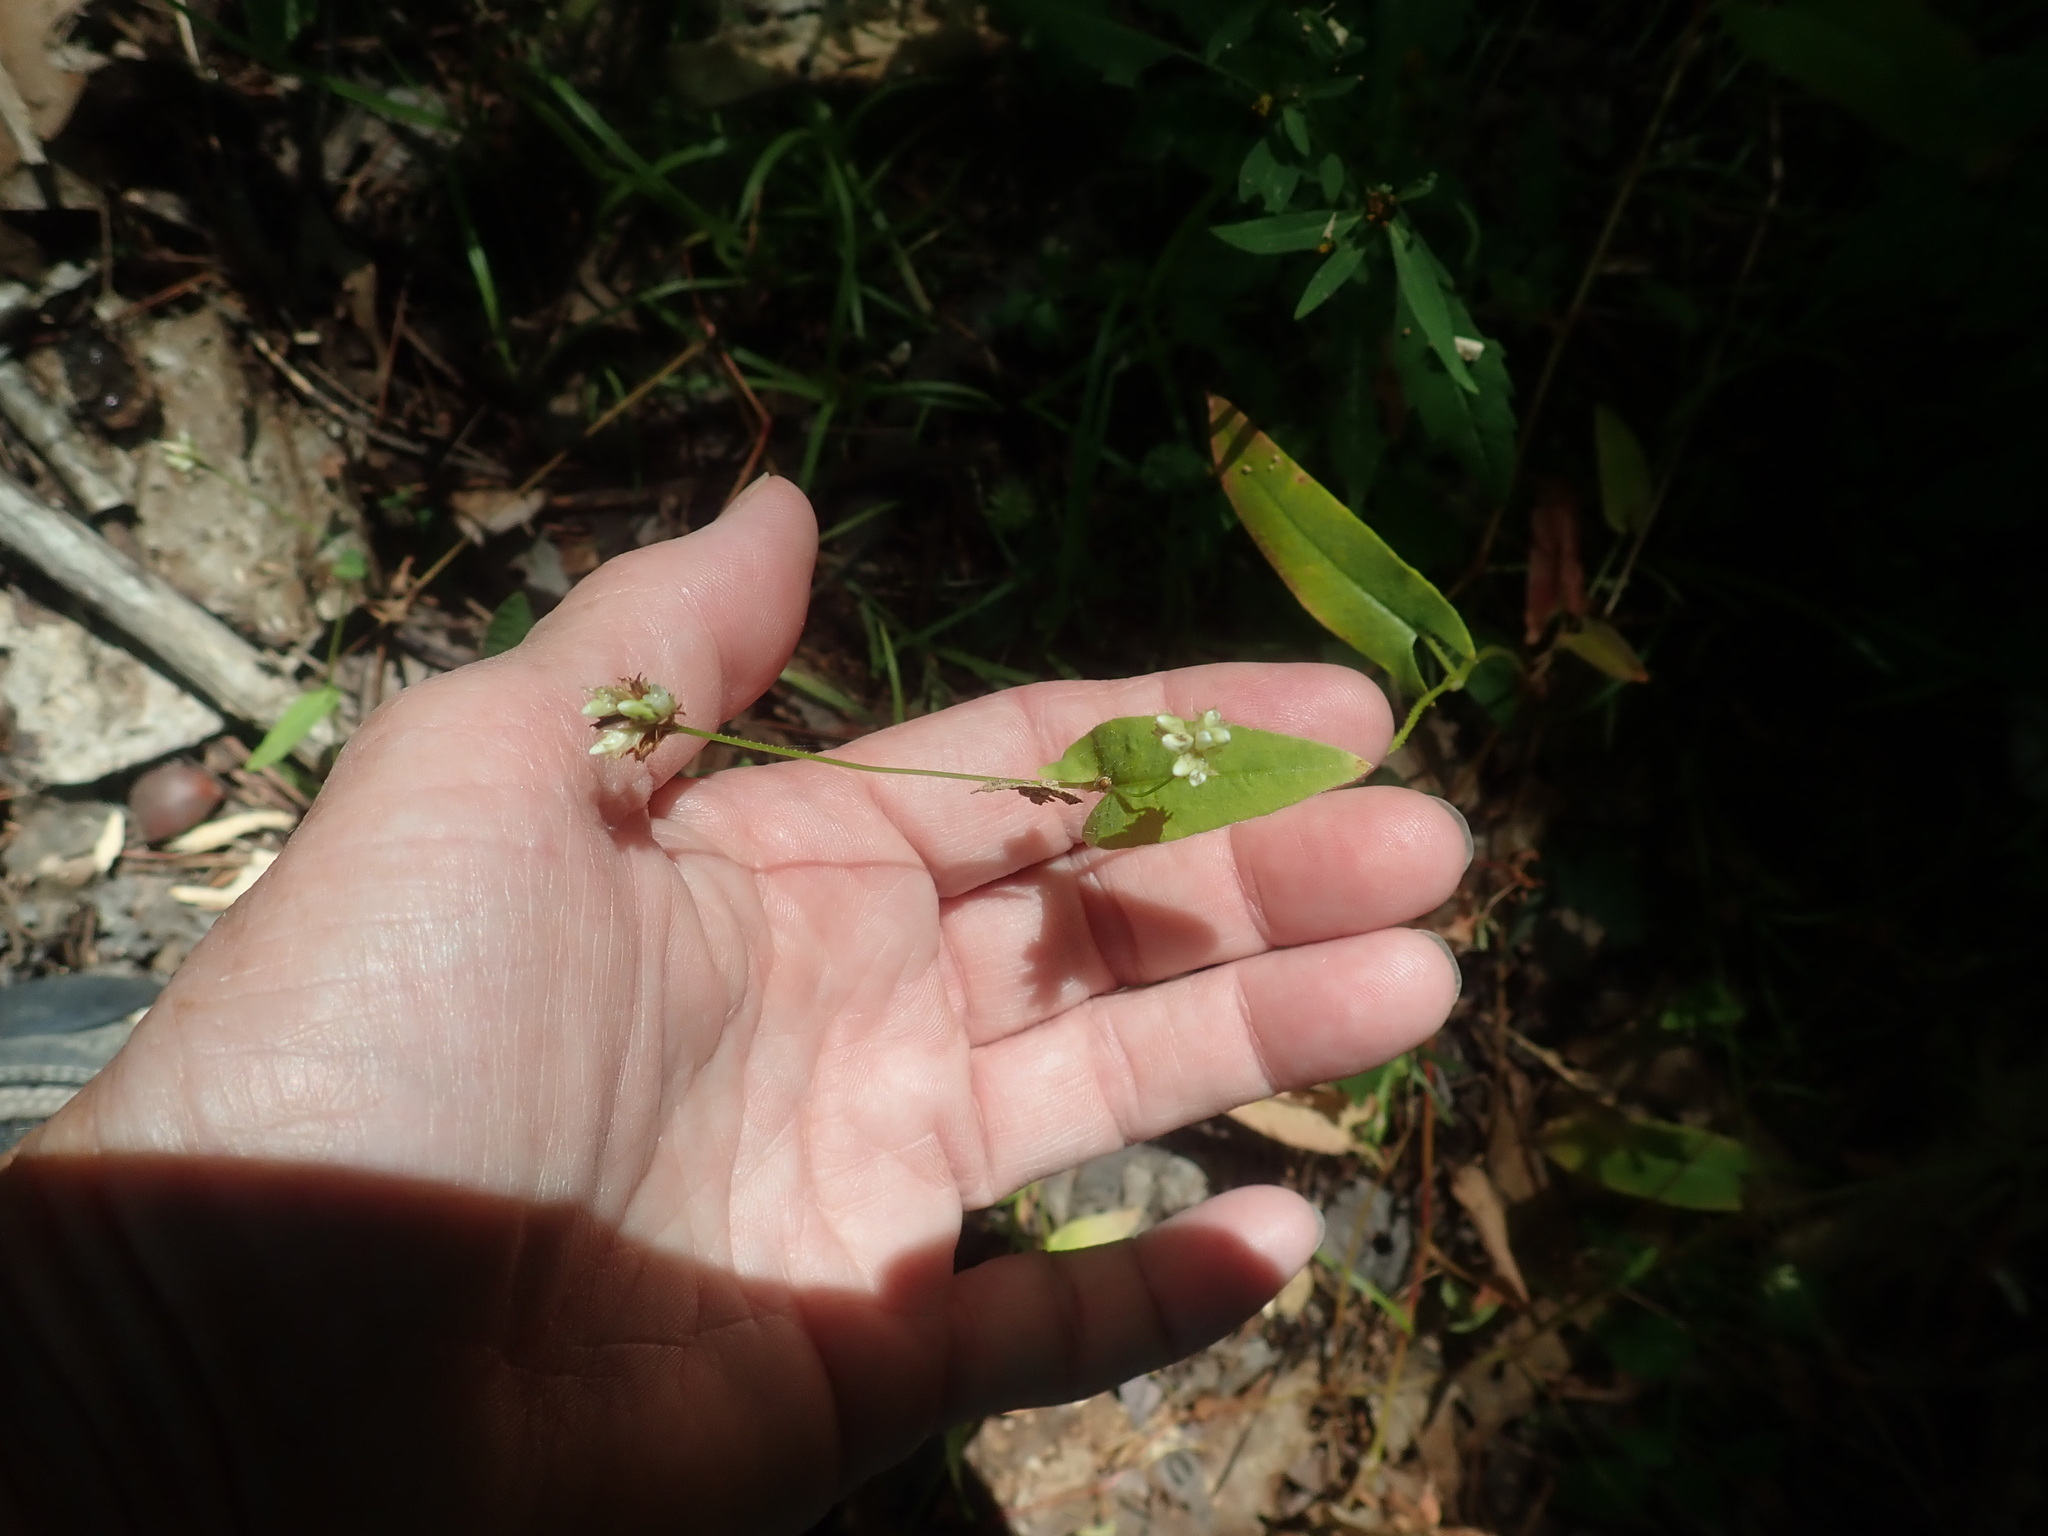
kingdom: Plantae
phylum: Tracheophyta
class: Magnoliopsida
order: Caryophyllales
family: Polygonaceae
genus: Persicaria
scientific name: Persicaria sagittata
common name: American tearthumb
